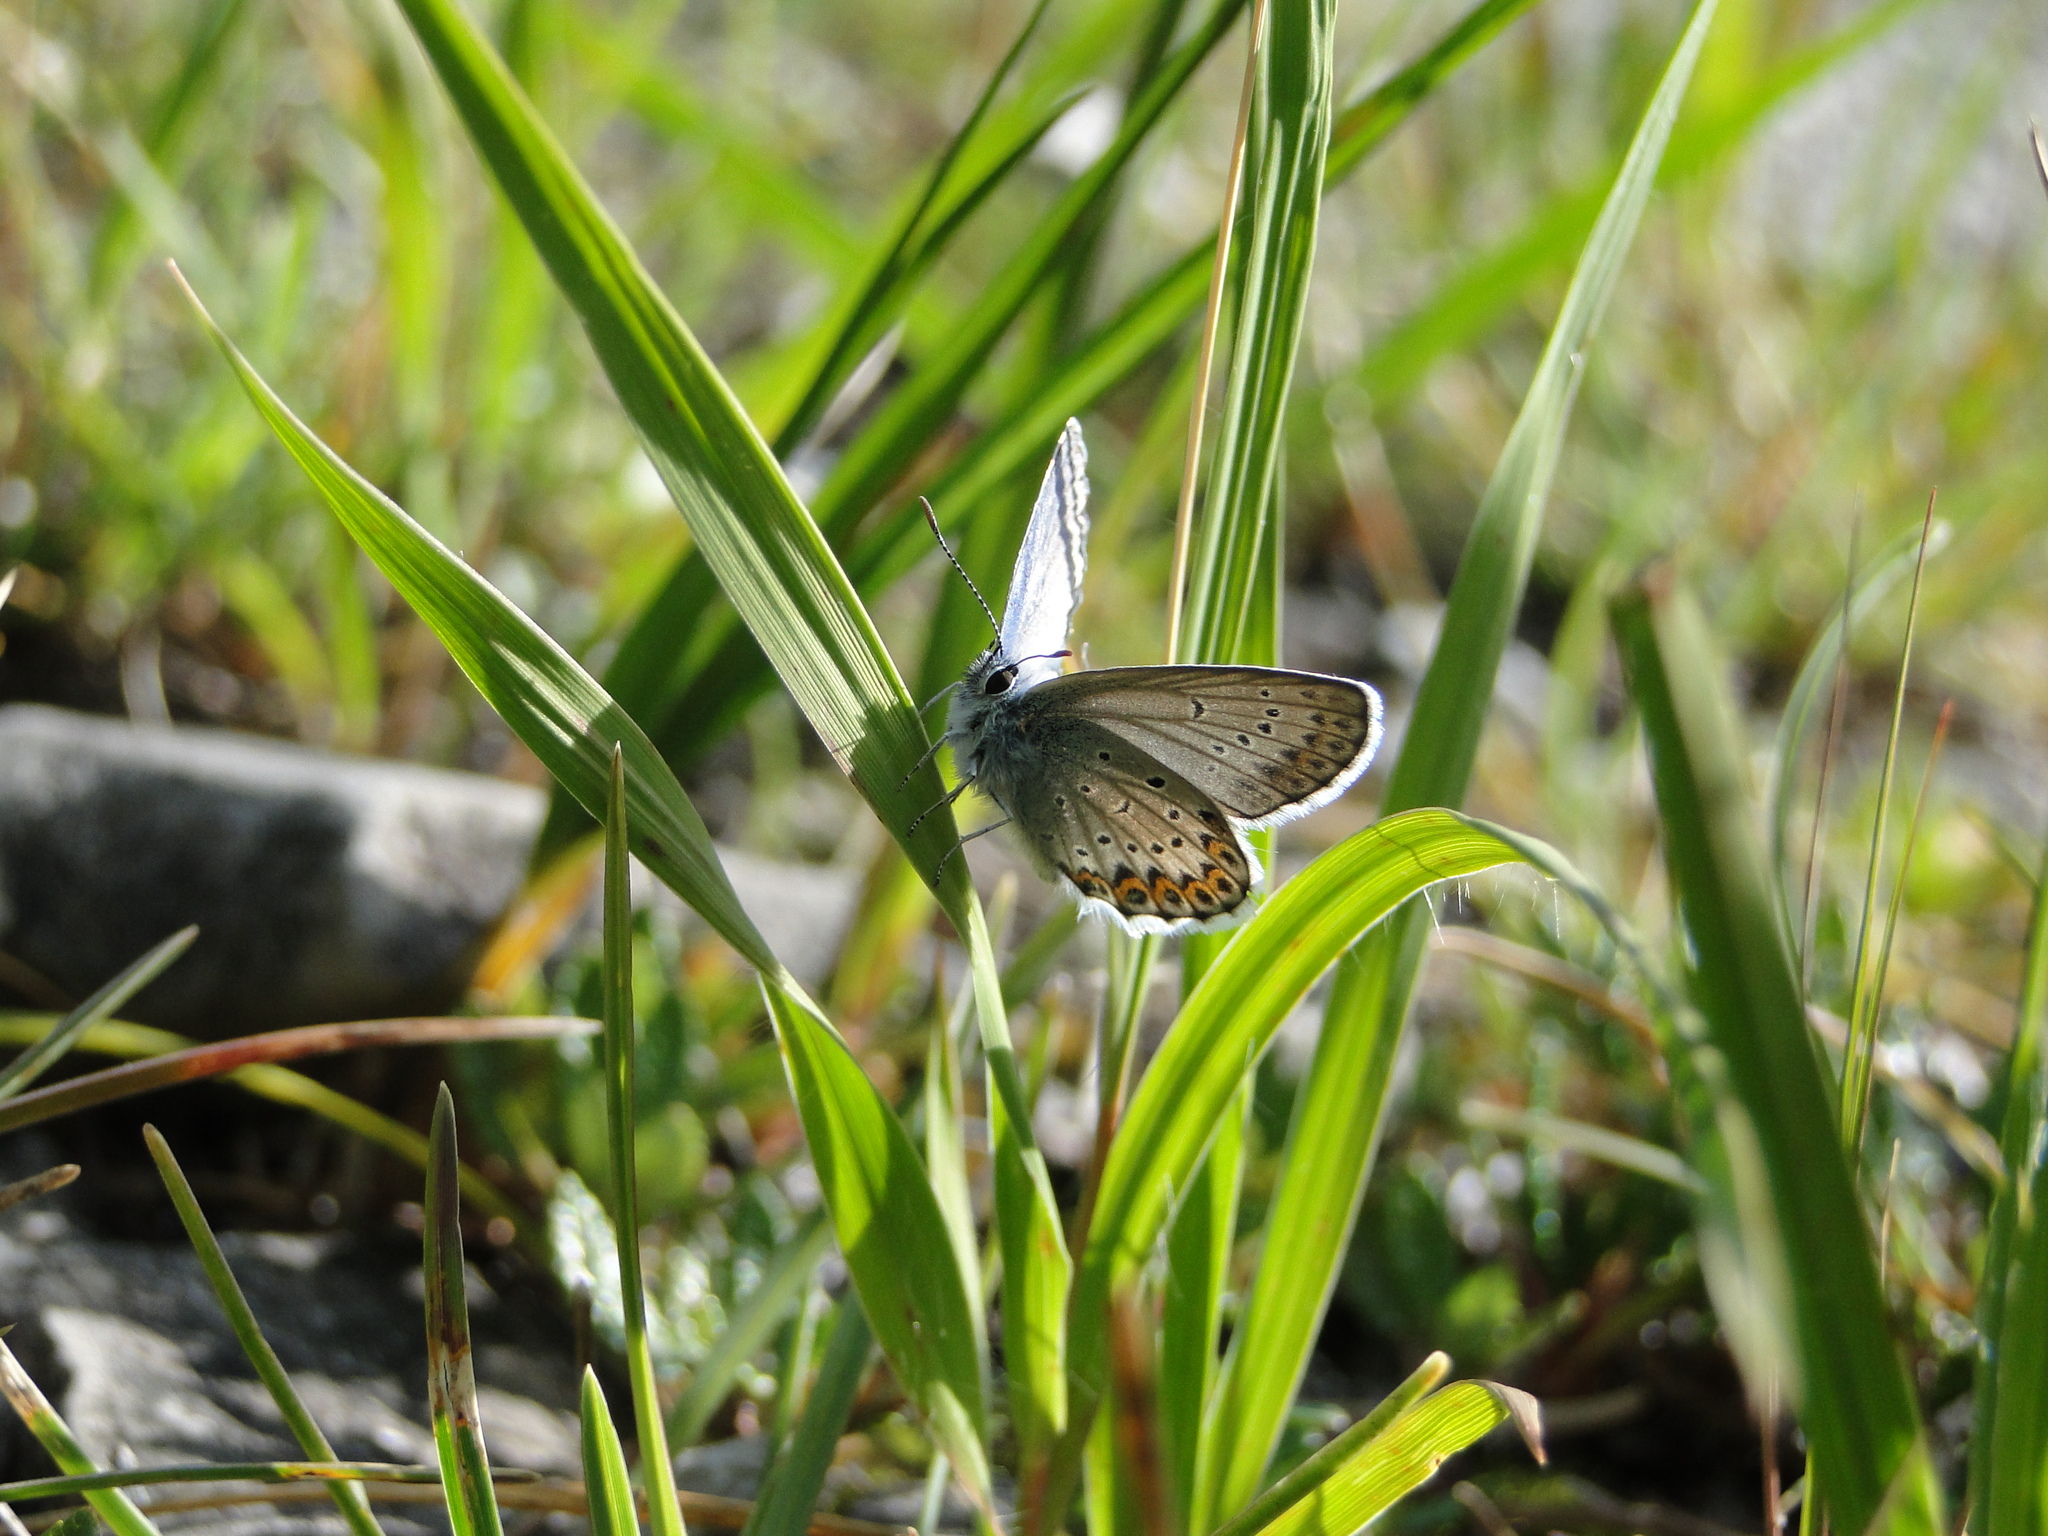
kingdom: Animalia
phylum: Arthropoda
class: Insecta
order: Lepidoptera
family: Lycaenidae
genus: Lycaeides
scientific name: Lycaeides idas
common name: Northern blue
